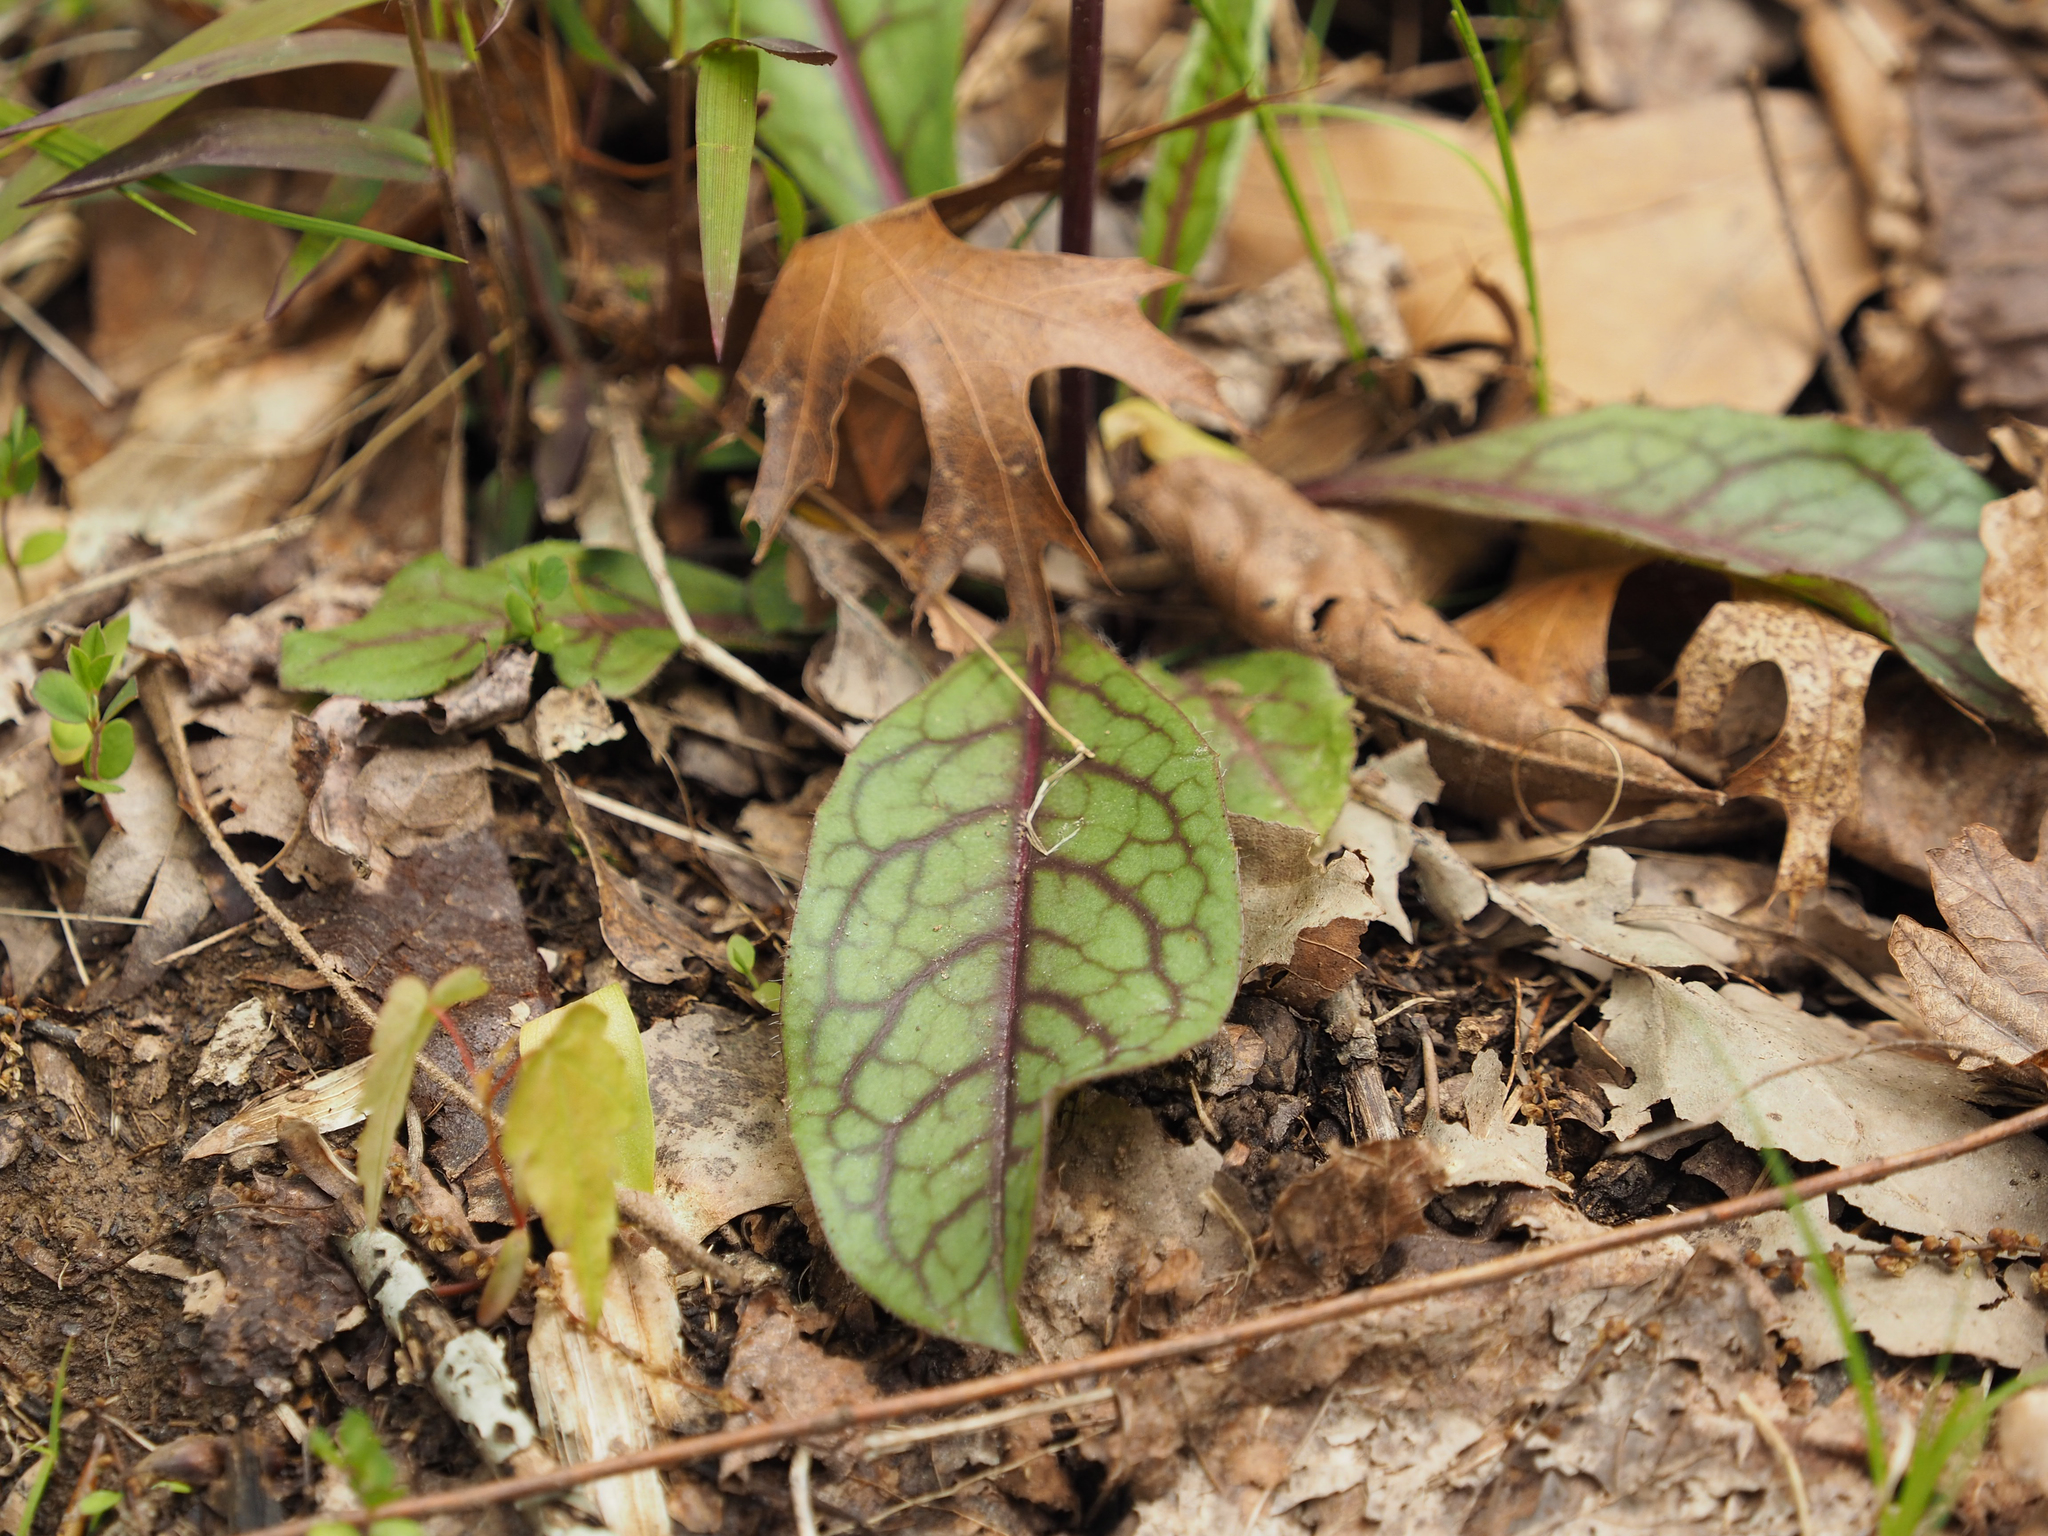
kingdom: Plantae
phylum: Tracheophyta
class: Magnoliopsida
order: Asterales
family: Asteraceae
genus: Hieracium
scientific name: Hieracium venosum
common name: Rattlesnake hawkweed
